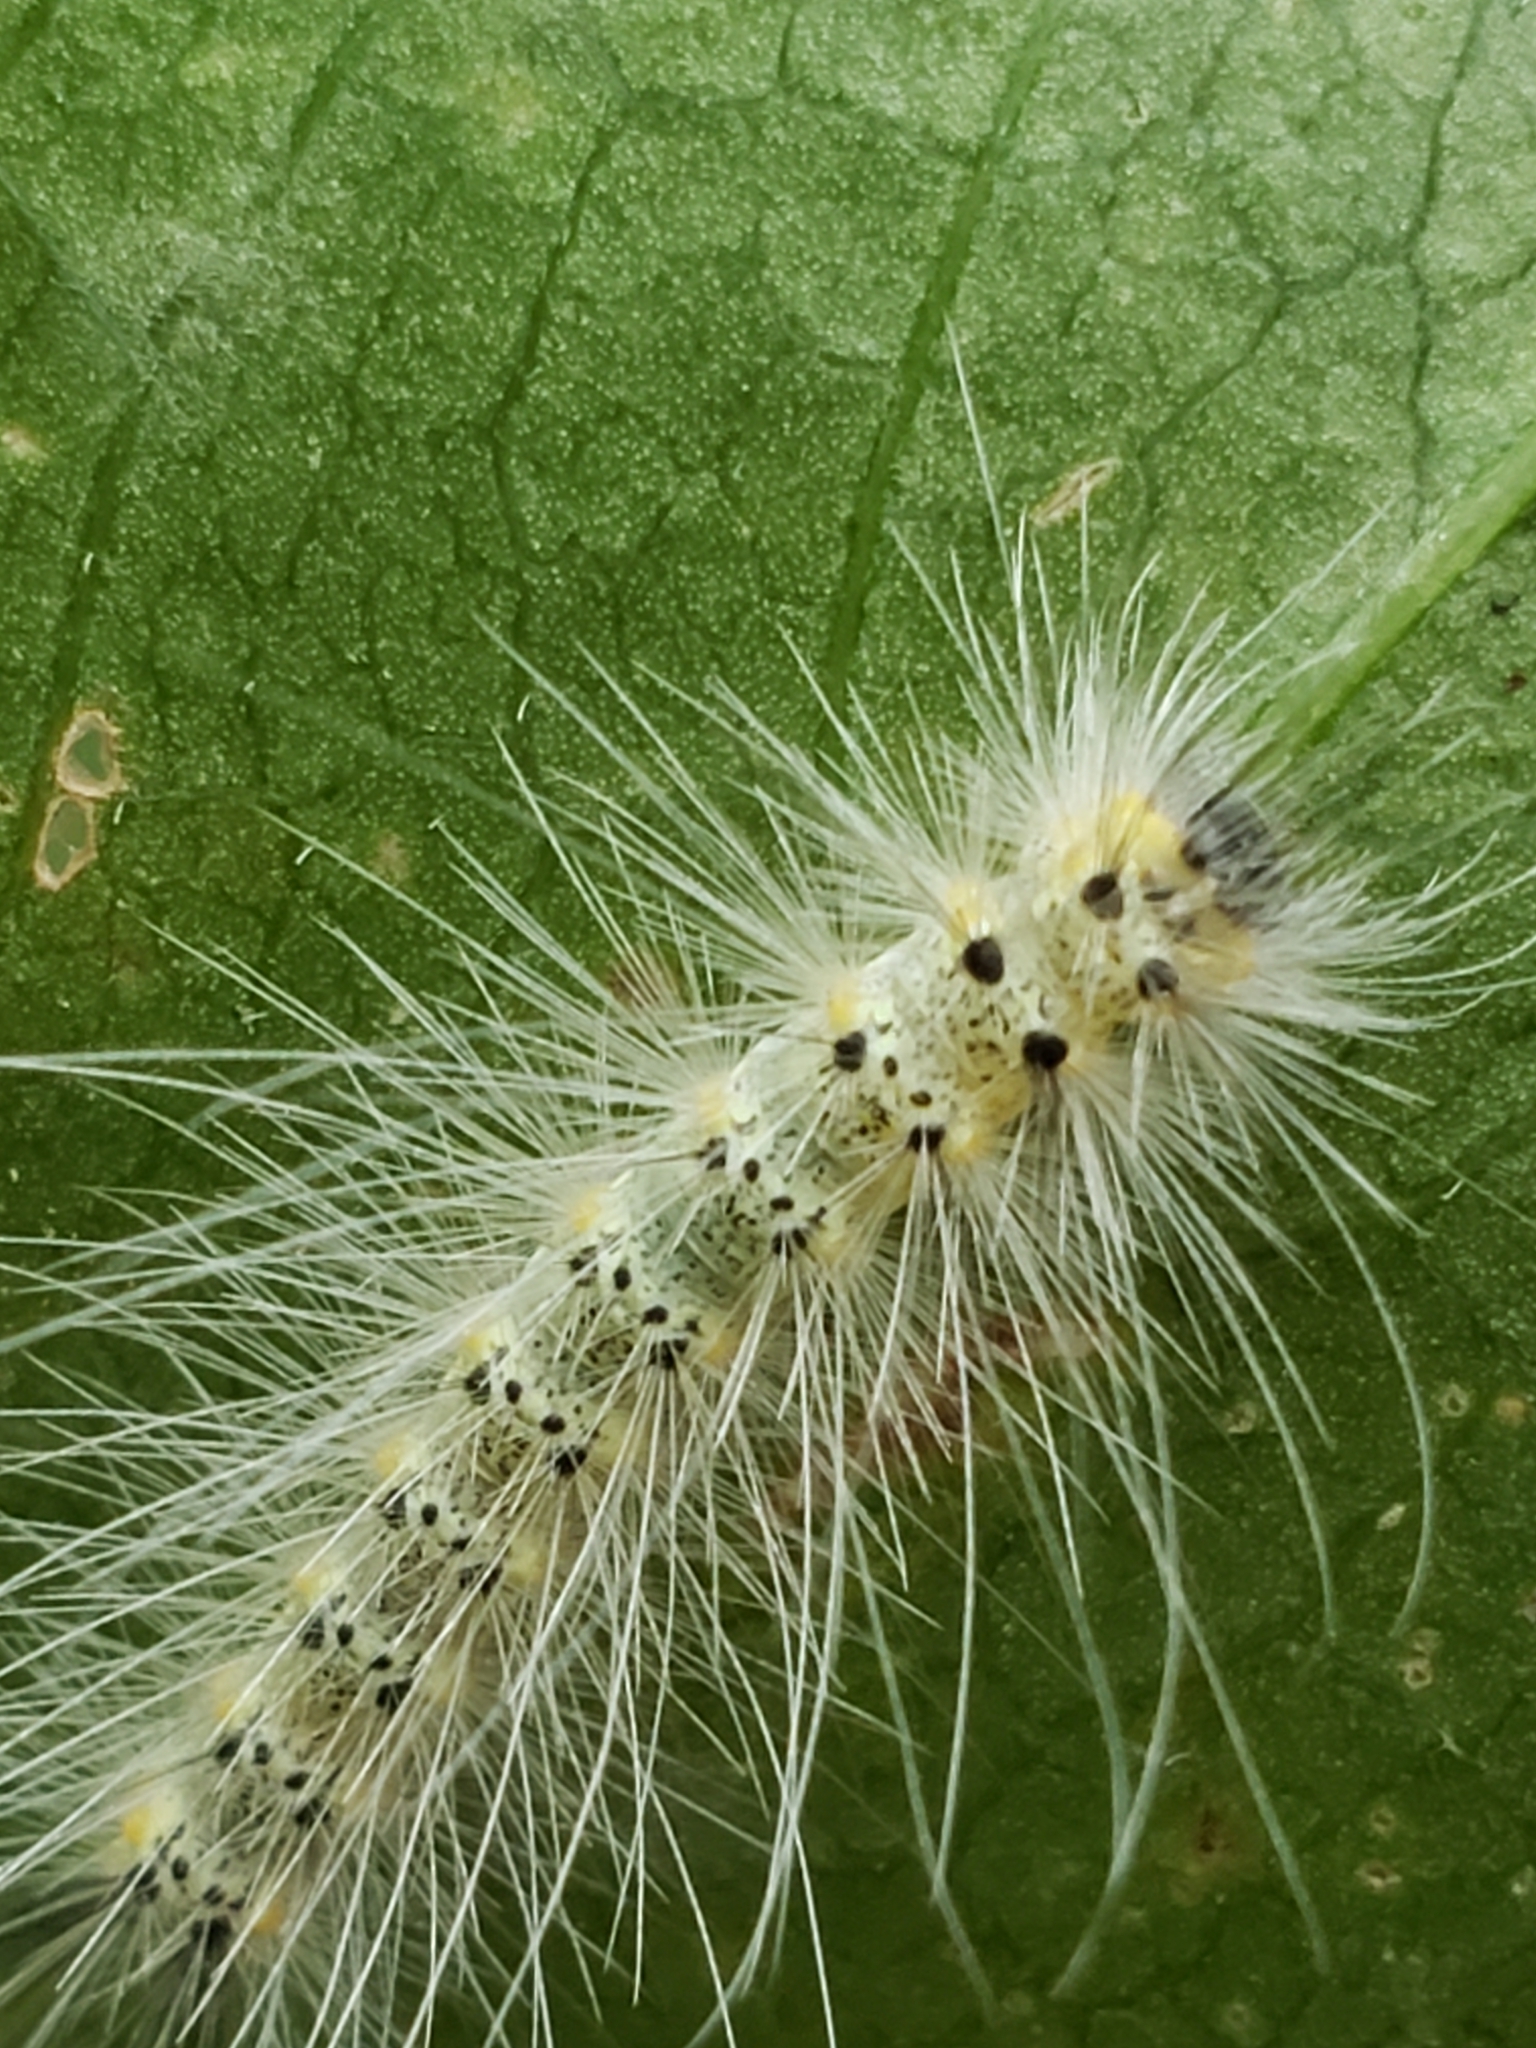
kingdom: Animalia
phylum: Arthropoda
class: Insecta
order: Lepidoptera
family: Erebidae
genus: Hyphantria
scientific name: Hyphantria cunea
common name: American white moth
